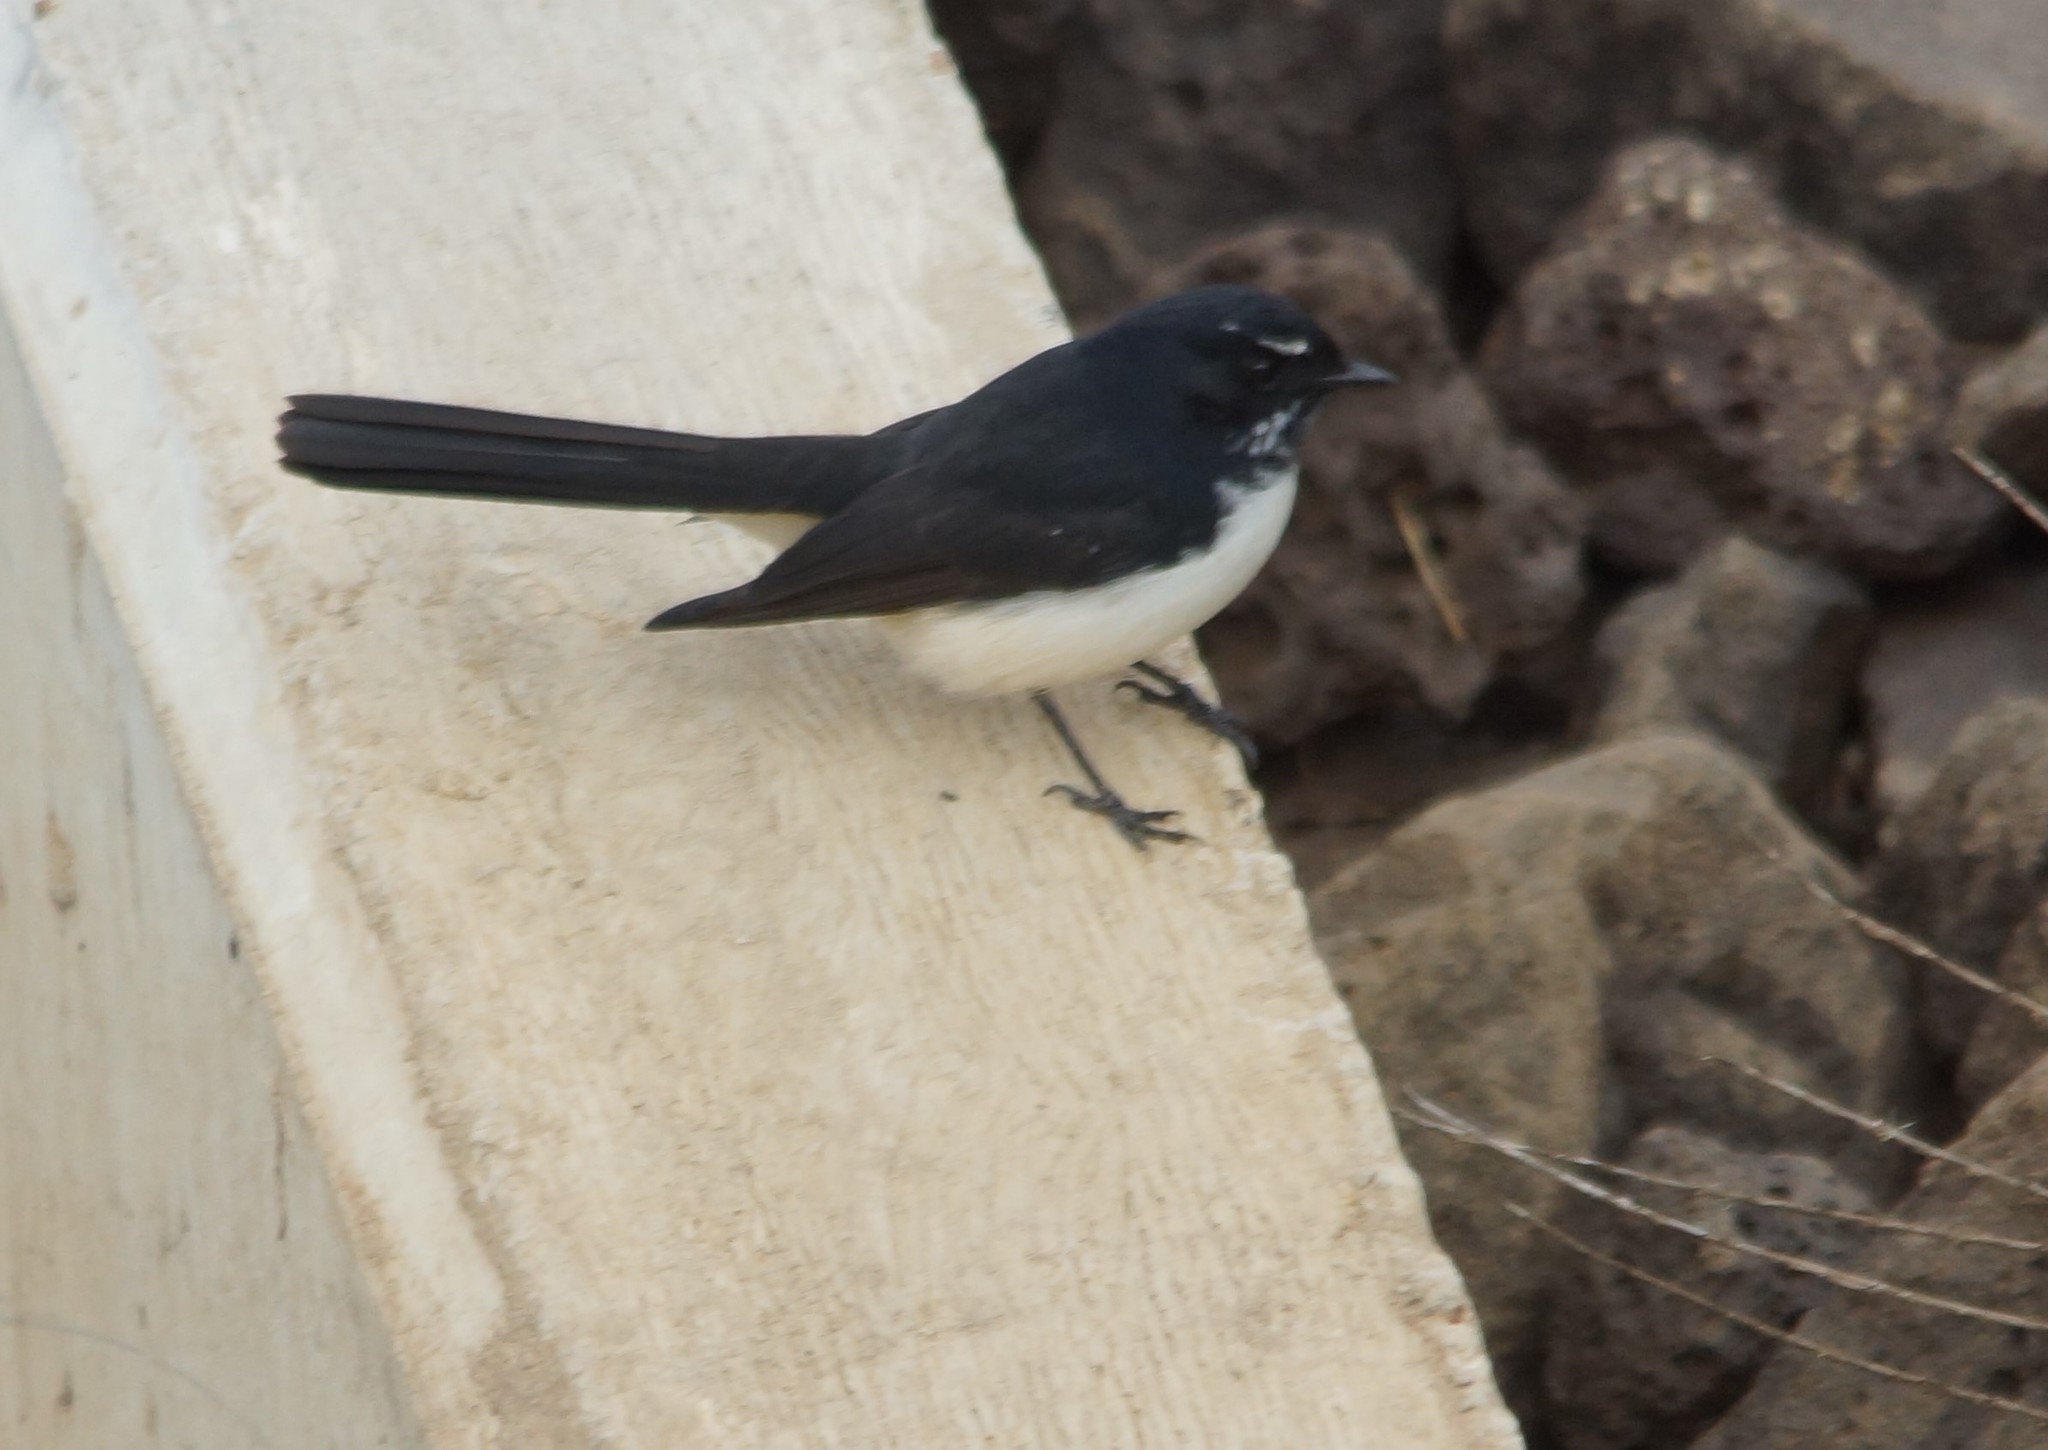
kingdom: Animalia
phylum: Chordata
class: Aves
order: Passeriformes
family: Rhipiduridae
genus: Rhipidura
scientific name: Rhipidura leucophrys
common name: Willie wagtail
